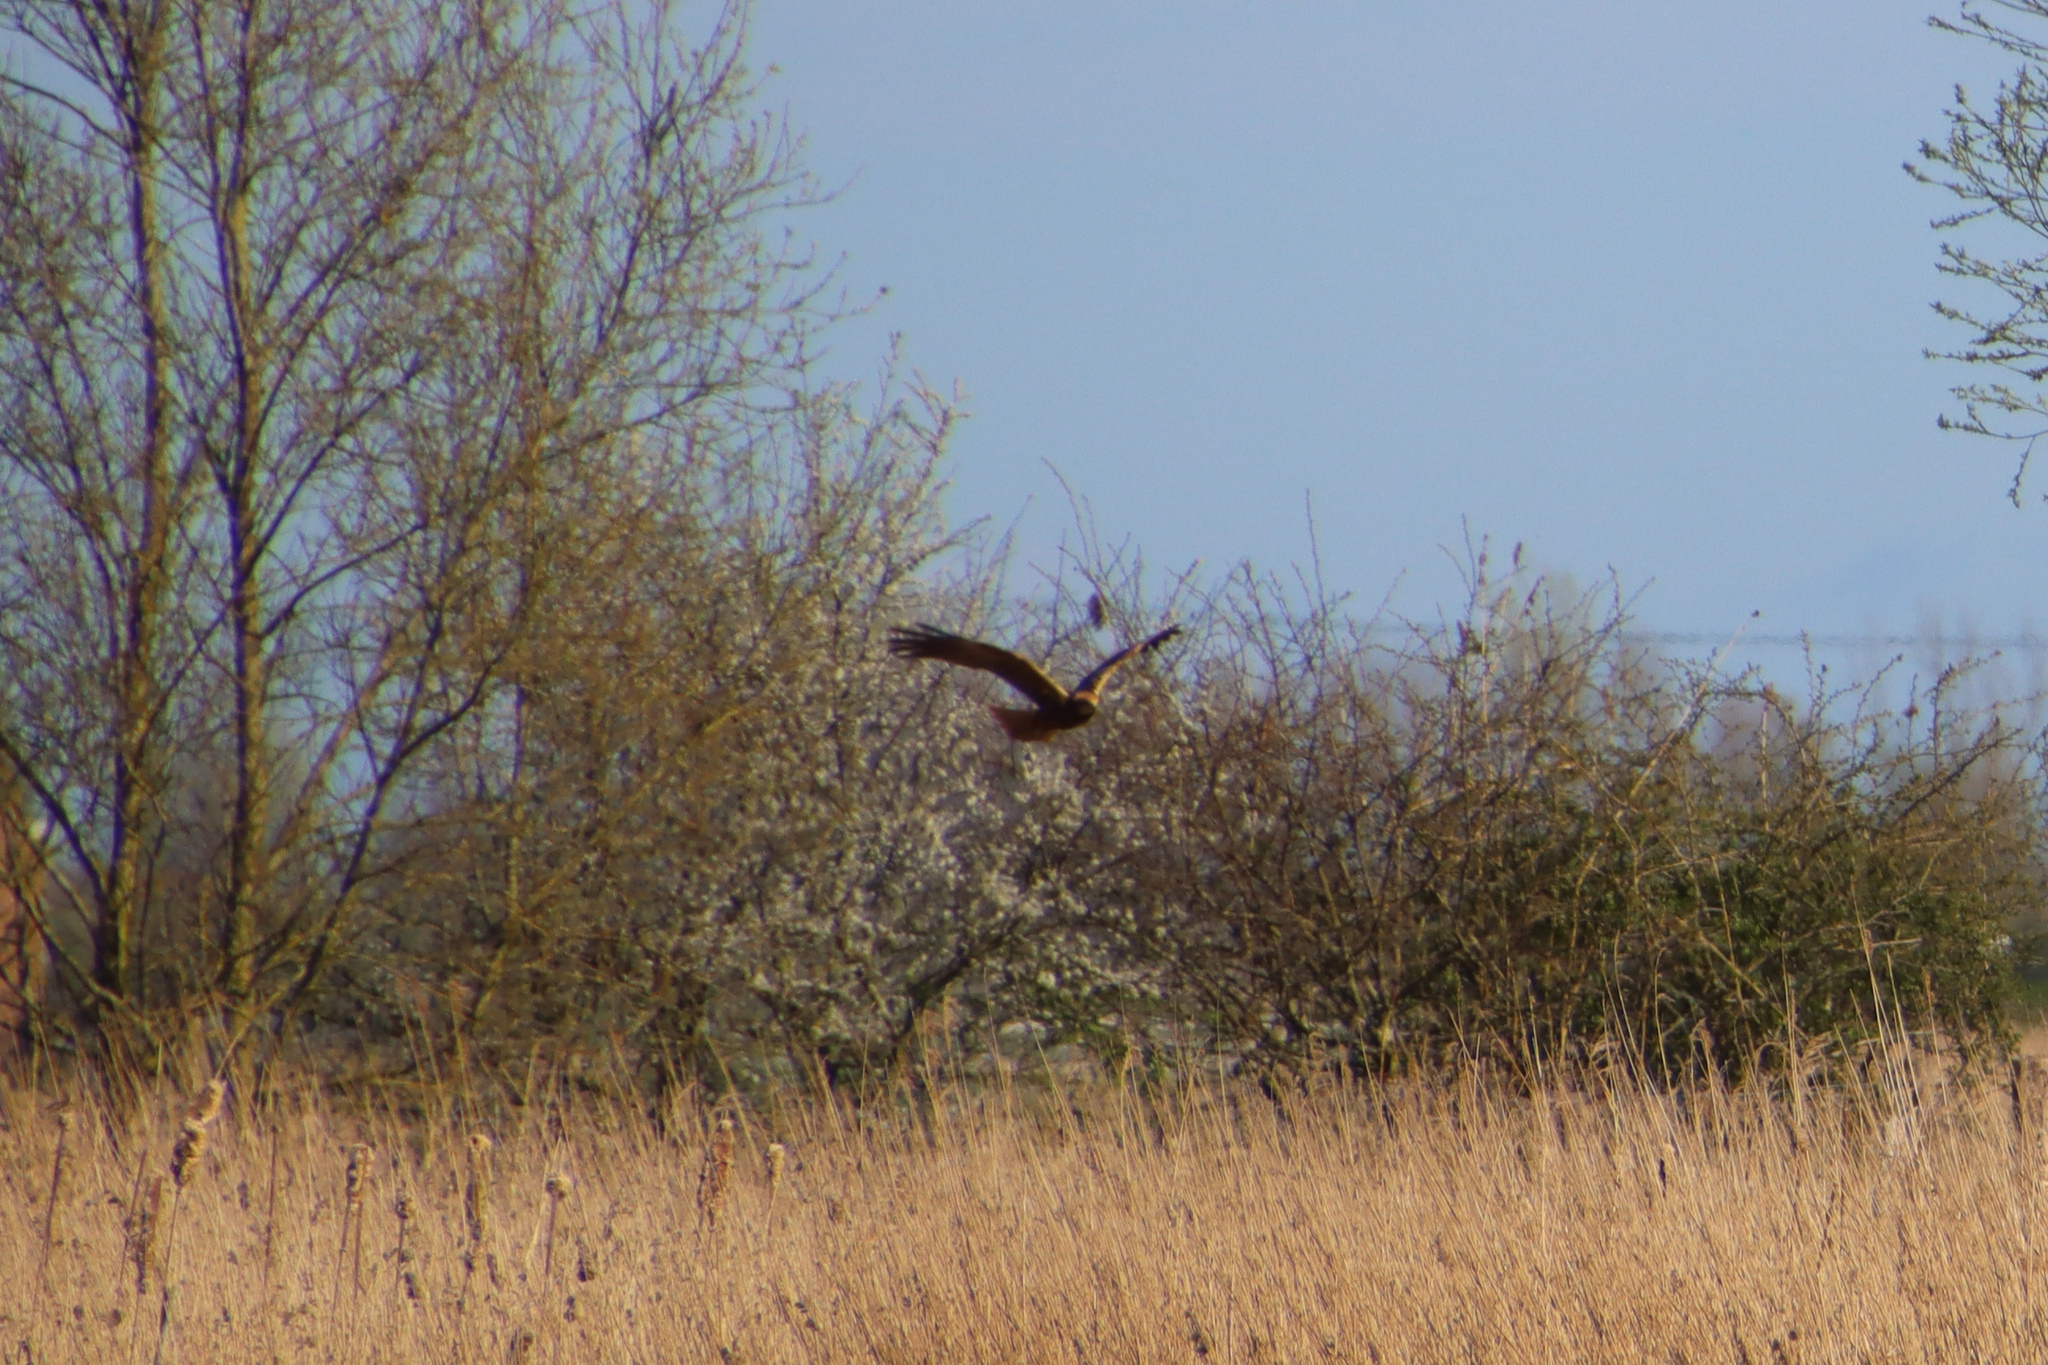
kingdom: Animalia
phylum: Chordata
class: Aves
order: Accipitriformes
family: Accipitridae
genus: Circus
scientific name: Circus aeruginosus
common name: Western marsh harrier
